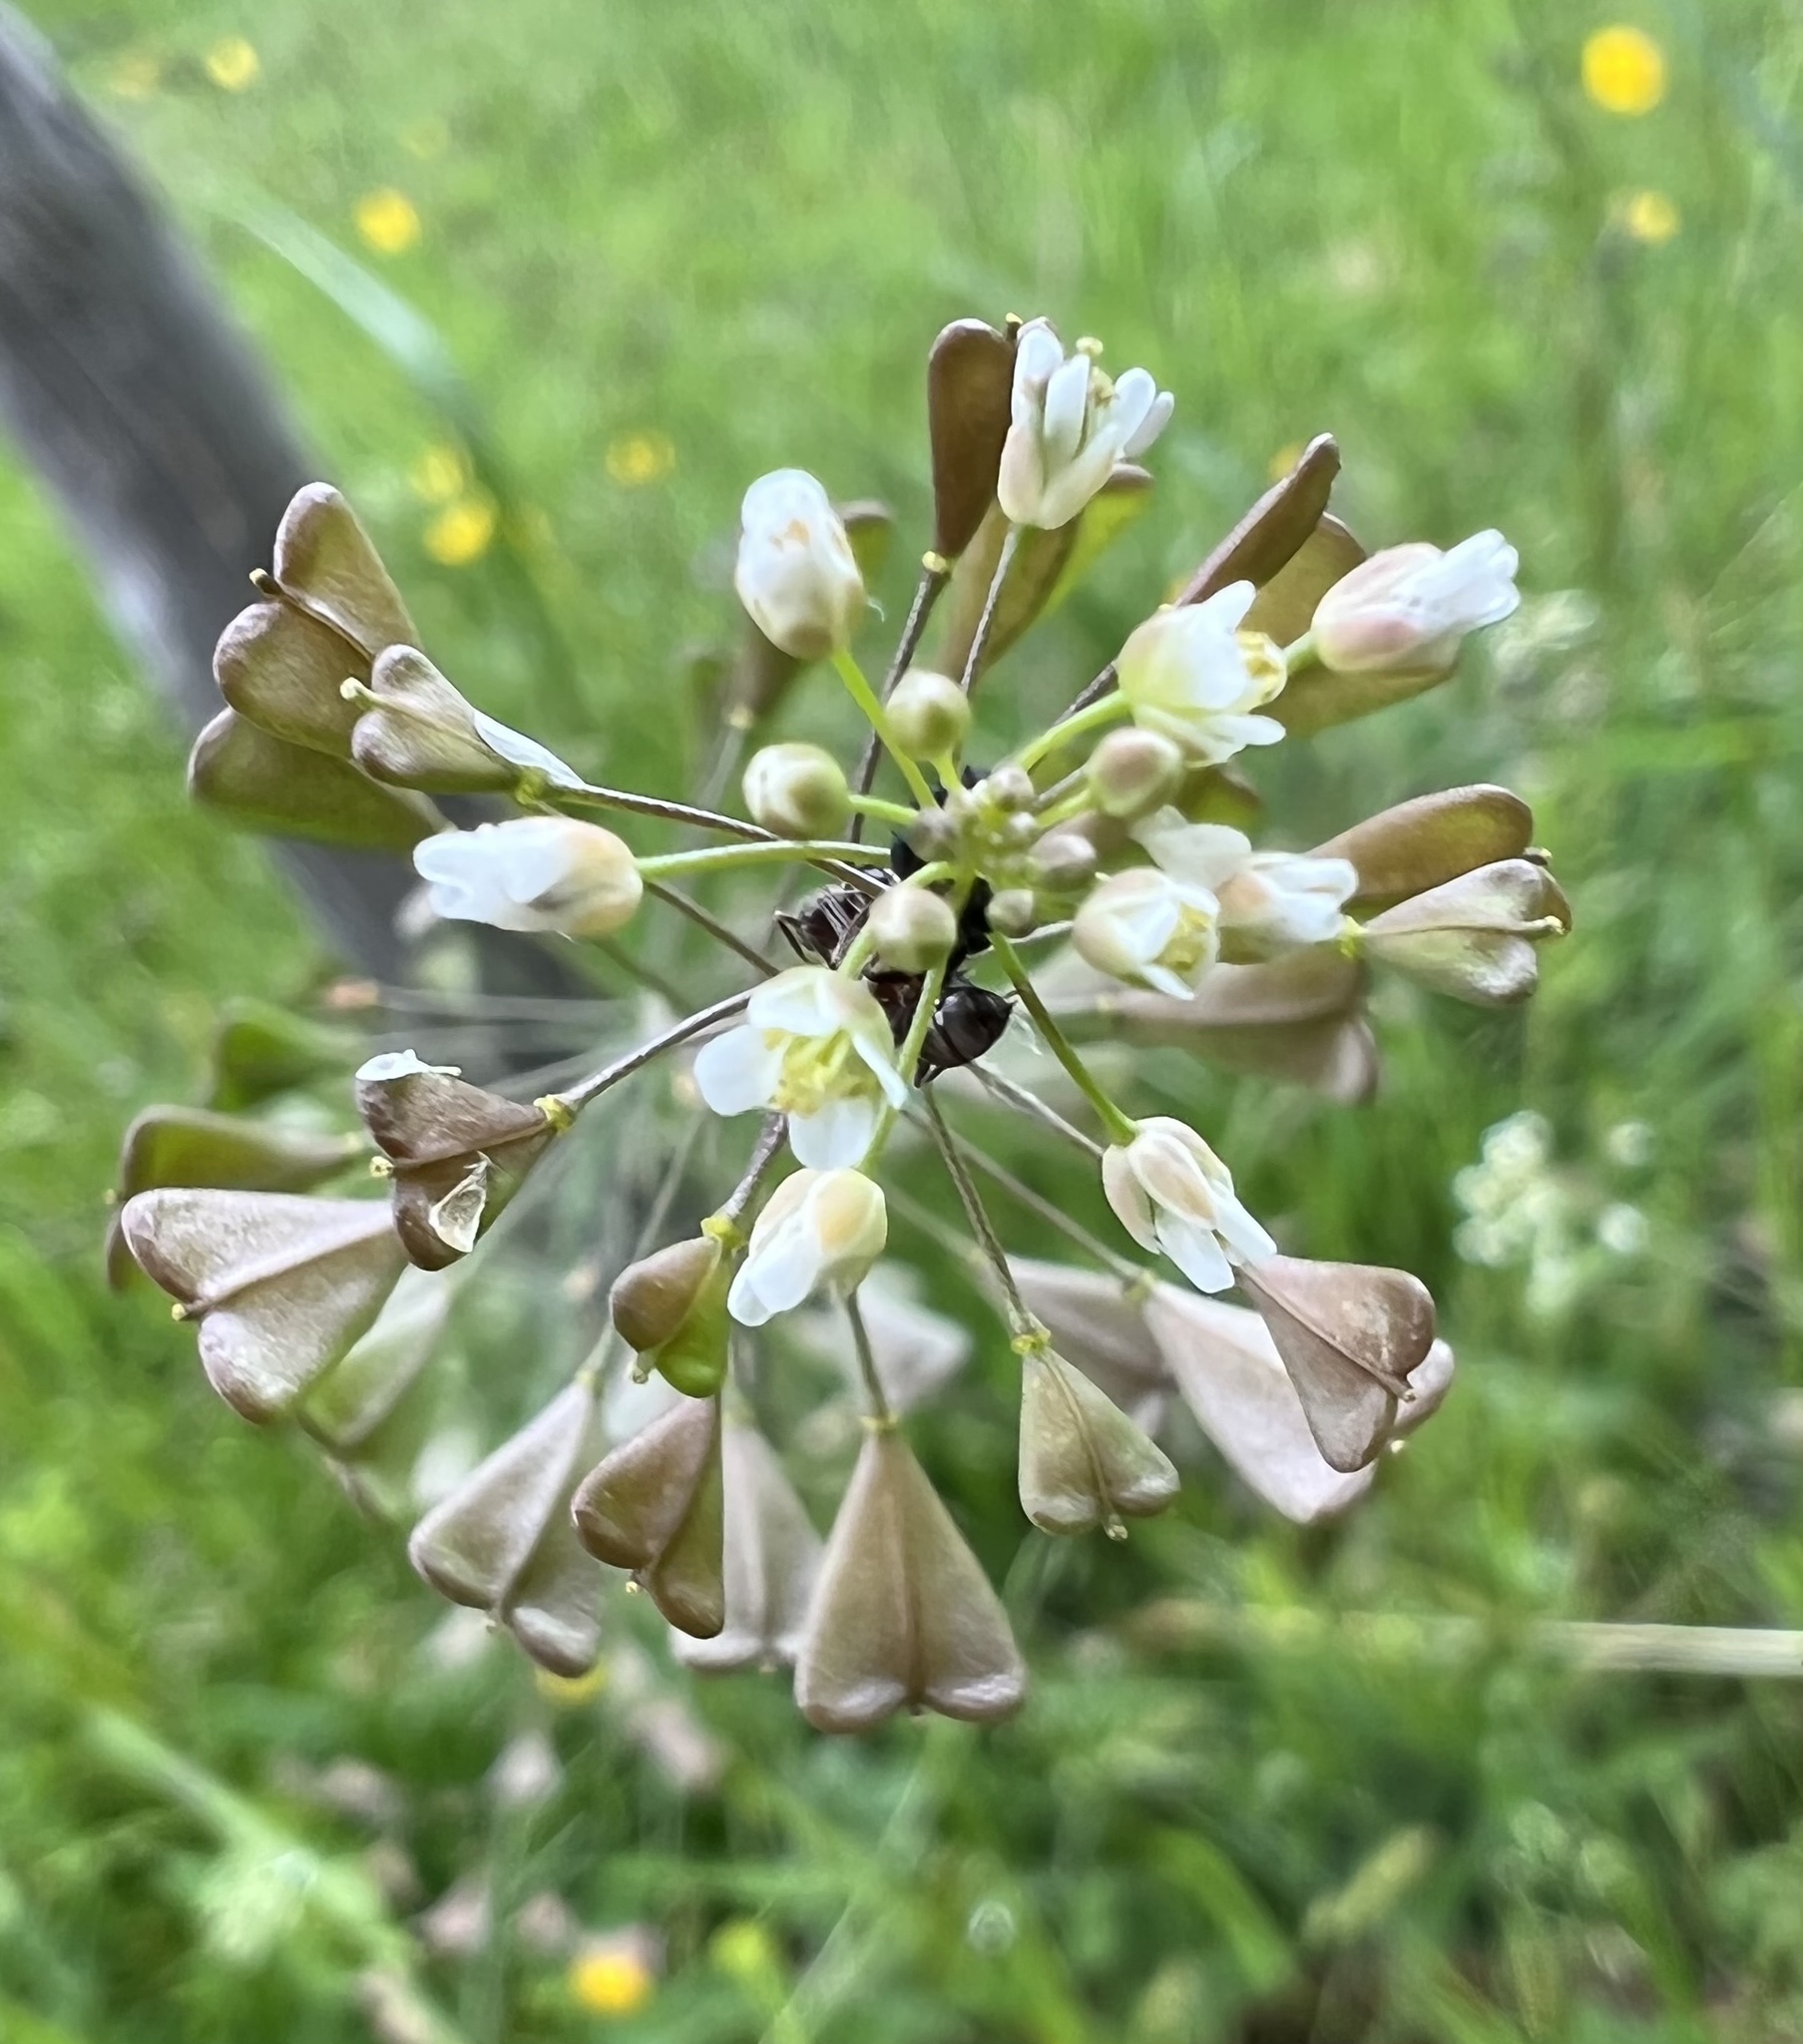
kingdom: Plantae
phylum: Tracheophyta
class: Magnoliopsida
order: Brassicales
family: Brassicaceae
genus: Capsella
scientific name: Capsella bursa-pastoris
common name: Shepherd's purse
